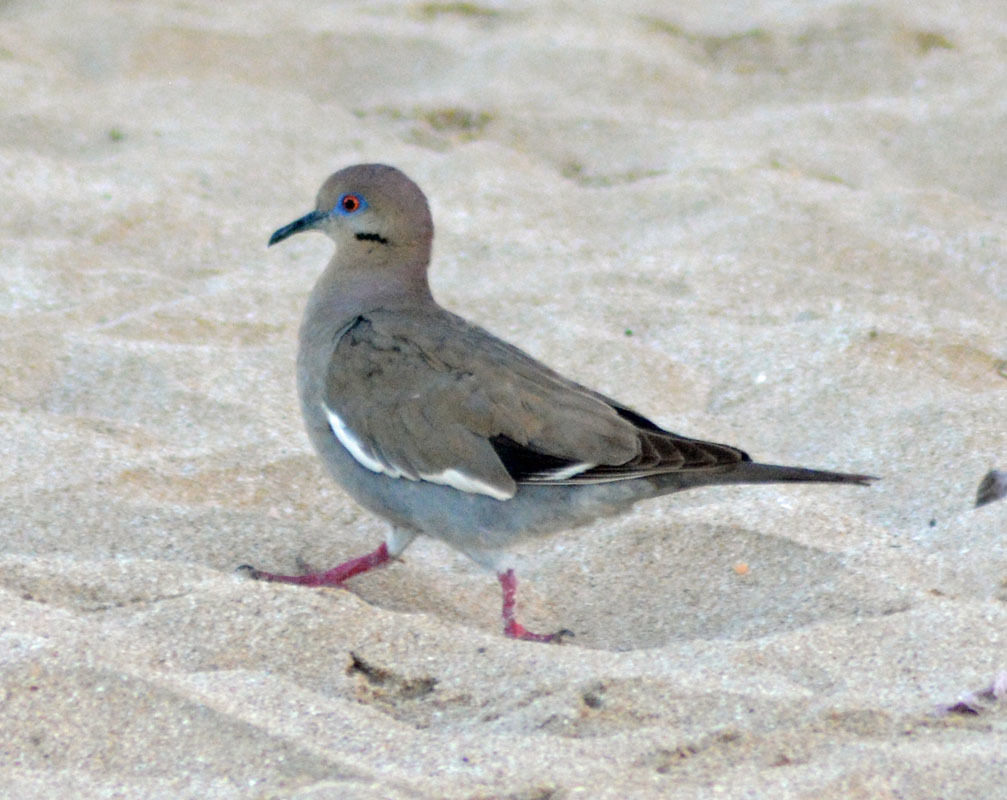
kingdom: Animalia
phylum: Chordata
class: Aves
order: Columbiformes
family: Columbidae
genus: Zenaida
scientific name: Zenaida asiatica
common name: White-winged dove
